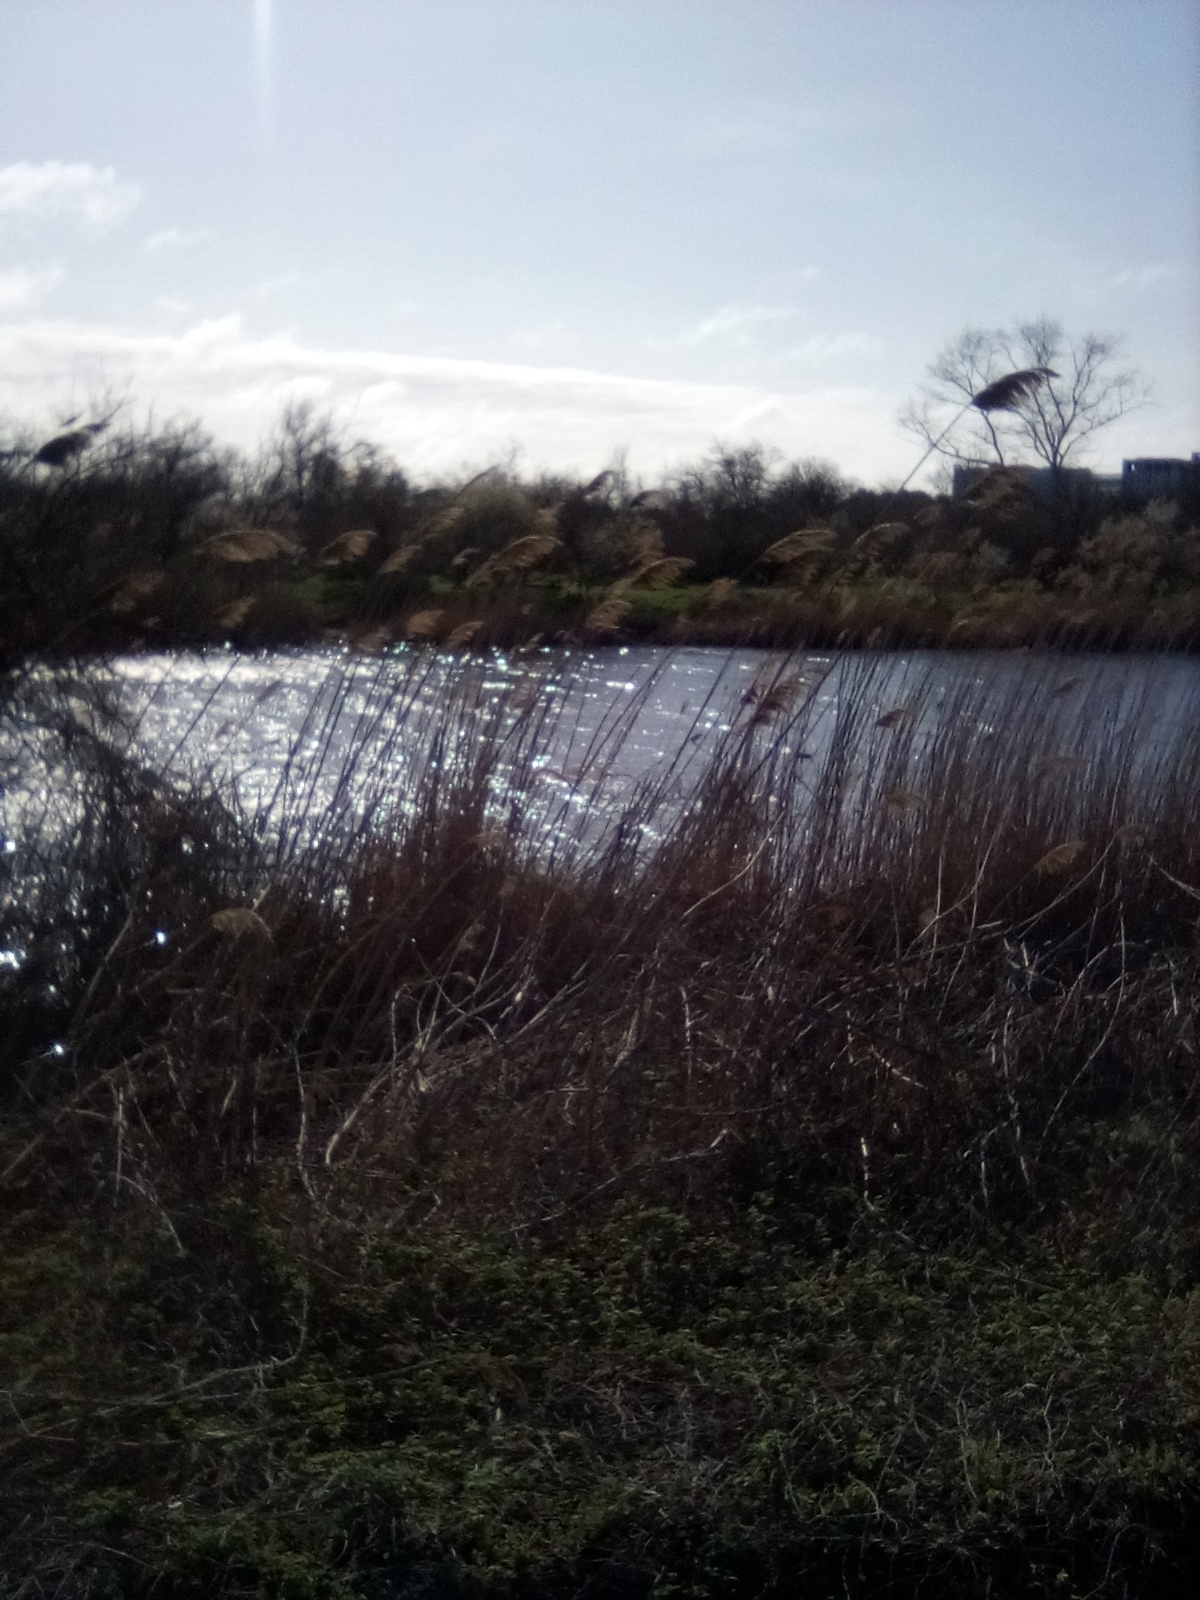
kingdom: Plantae
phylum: Tracheophyta
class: Liliopsida
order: Poales
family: Poaceae
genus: Phragmites
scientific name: Phragmites australis
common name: Common reed
